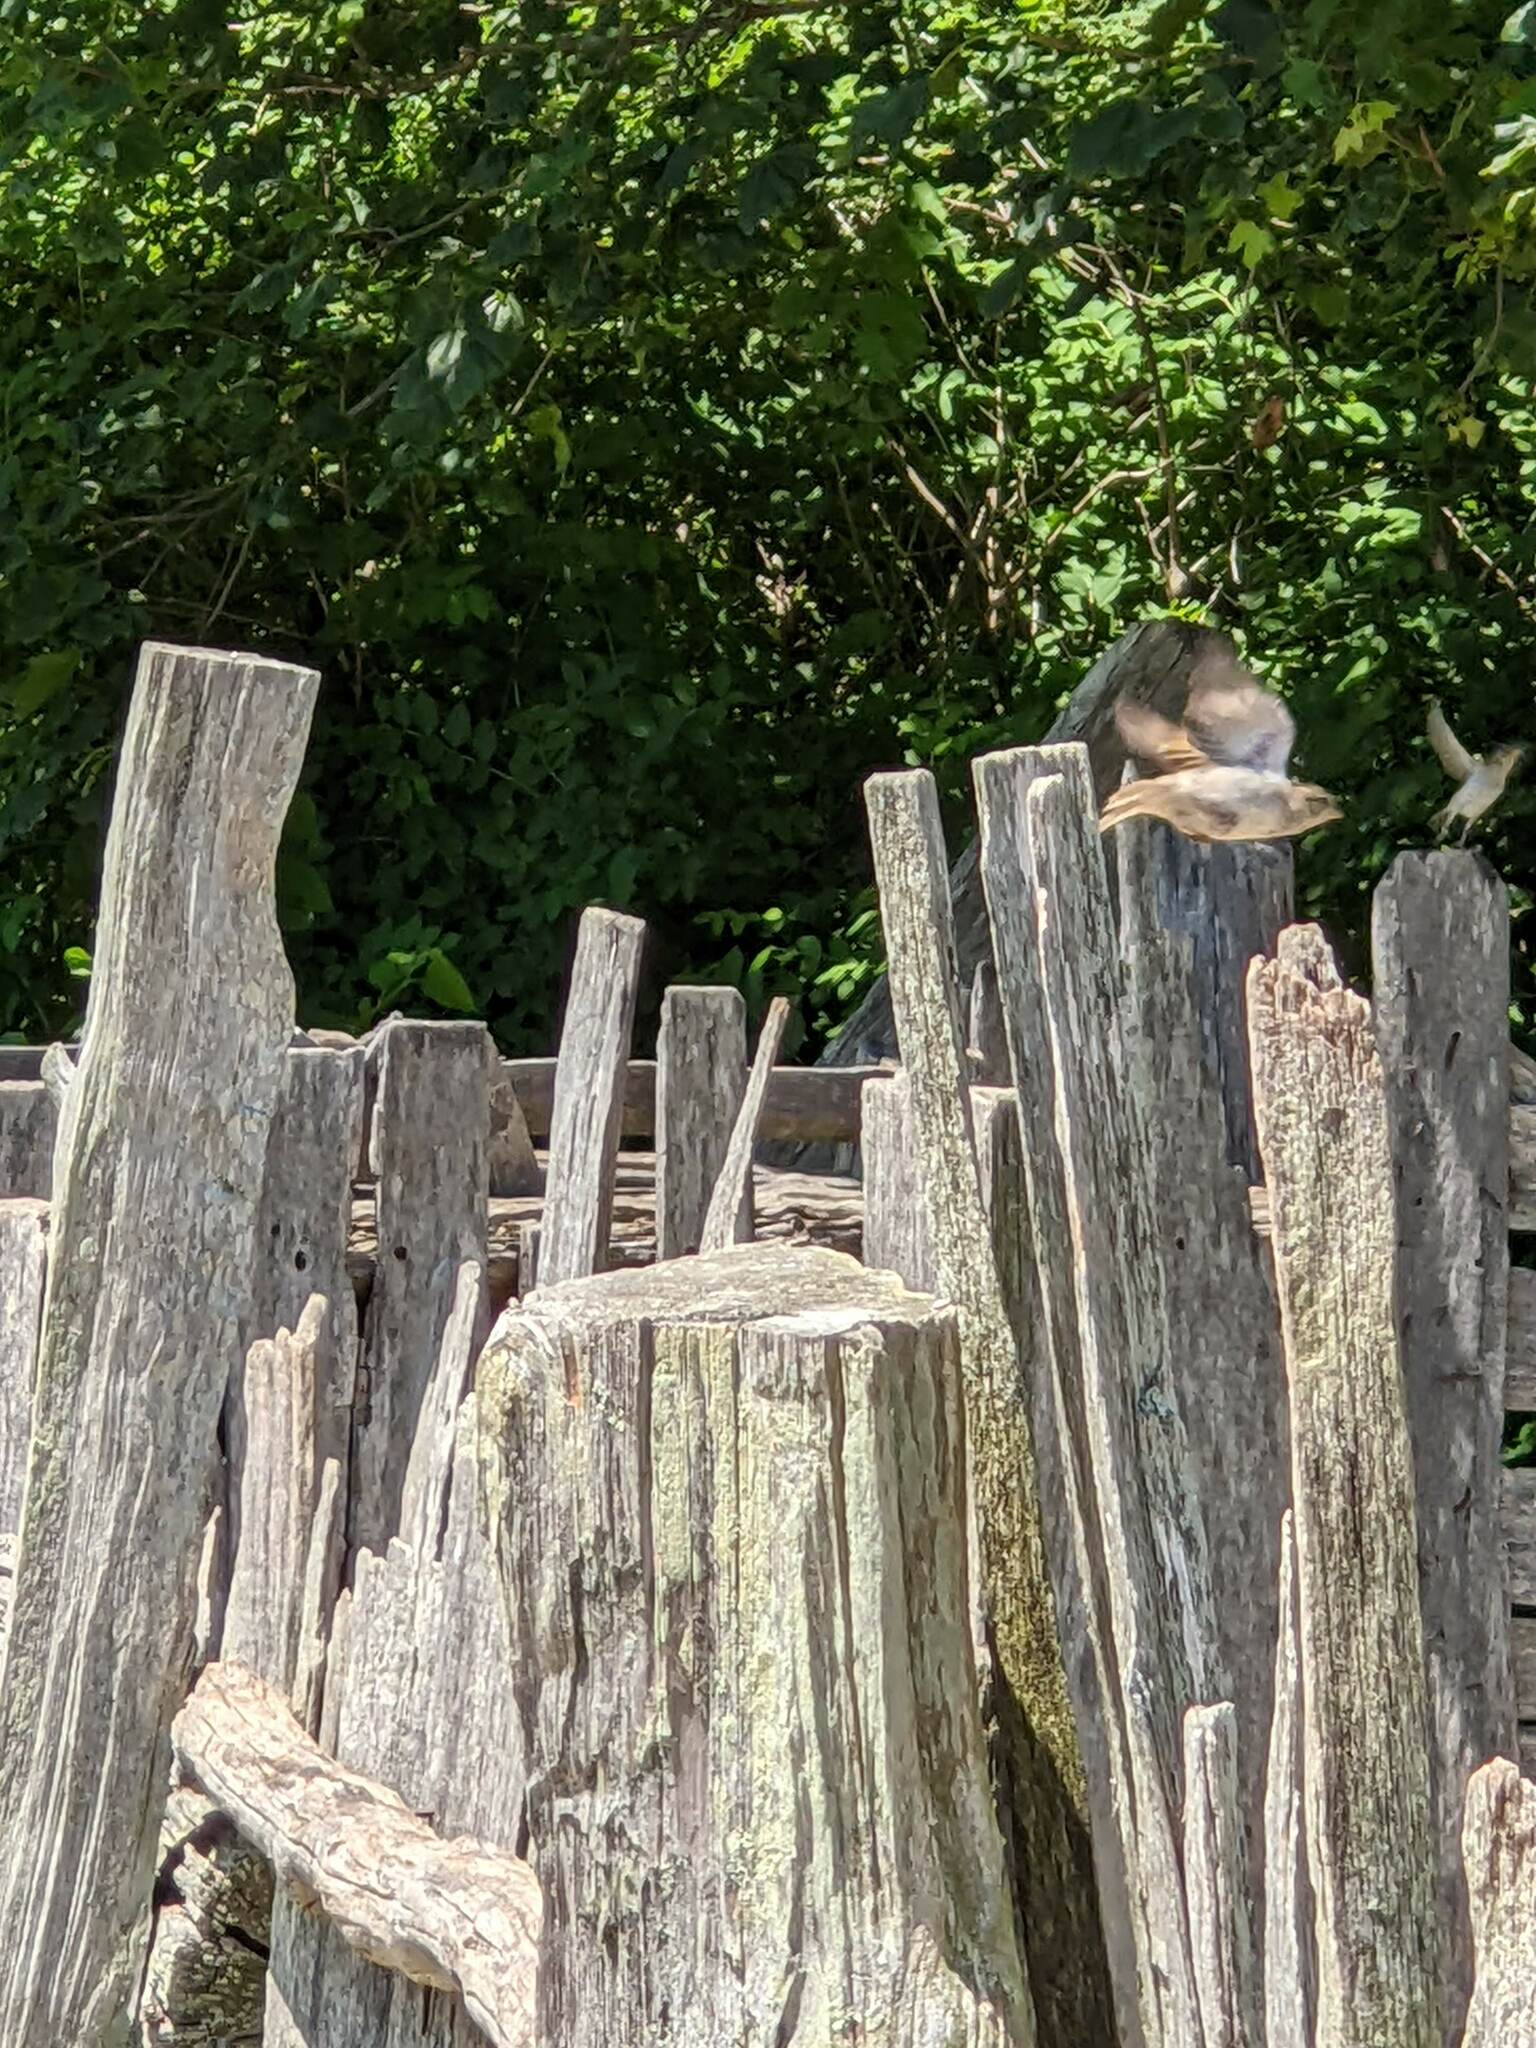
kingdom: Animalia
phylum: Chordata
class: Aves
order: Passeriformes
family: Passeridae
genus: Passer
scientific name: Passer domesticus
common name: House sparrow
